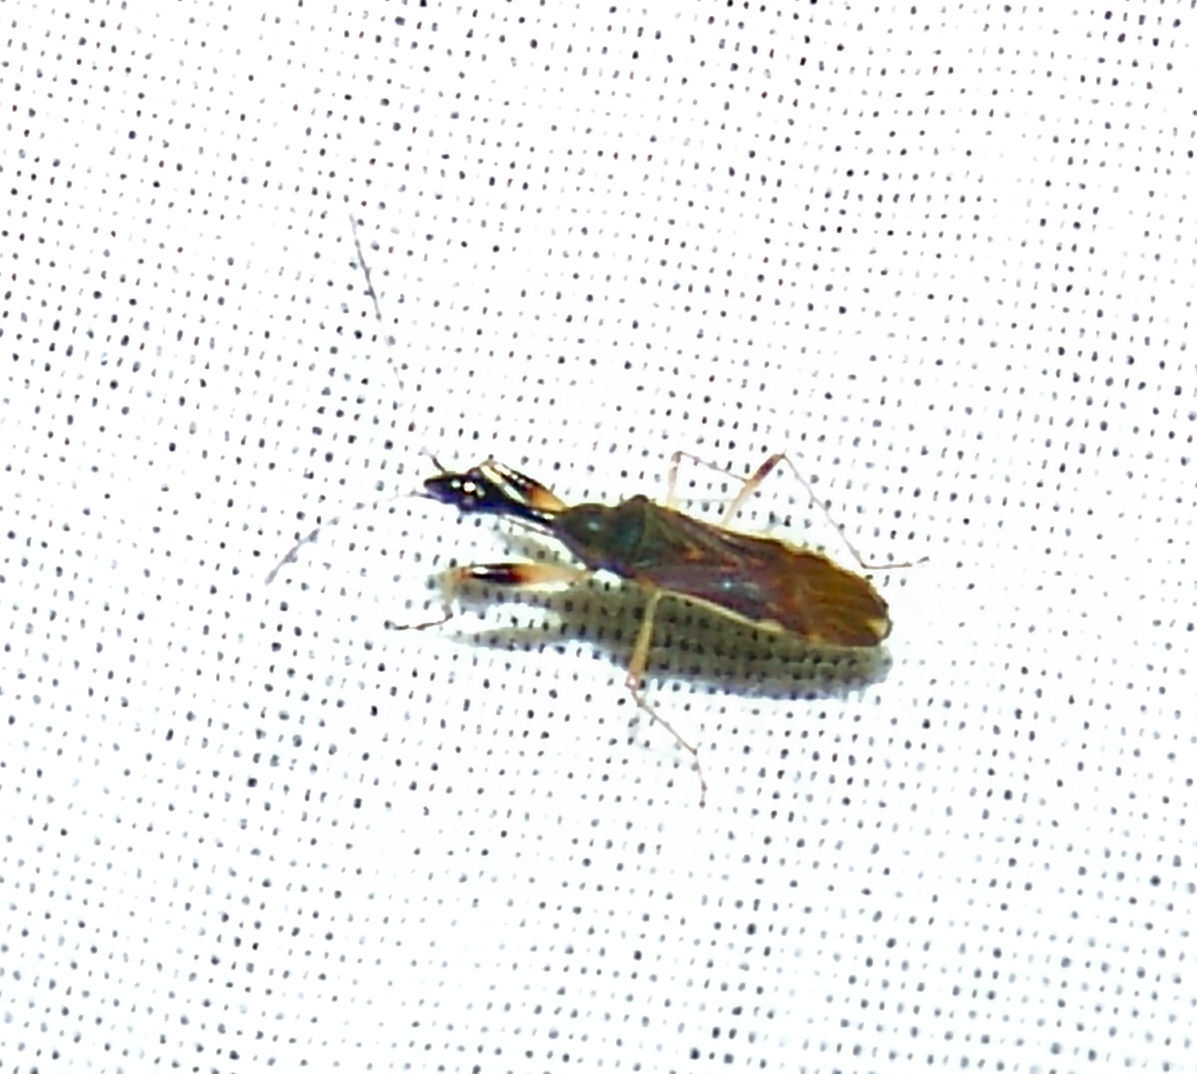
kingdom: Animalia
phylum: Arthropoda
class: Insecta
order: Hemiptera
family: Rhyparochromidae
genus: Myodocha
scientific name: Myodocha serripes
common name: Long-necked seed bug
